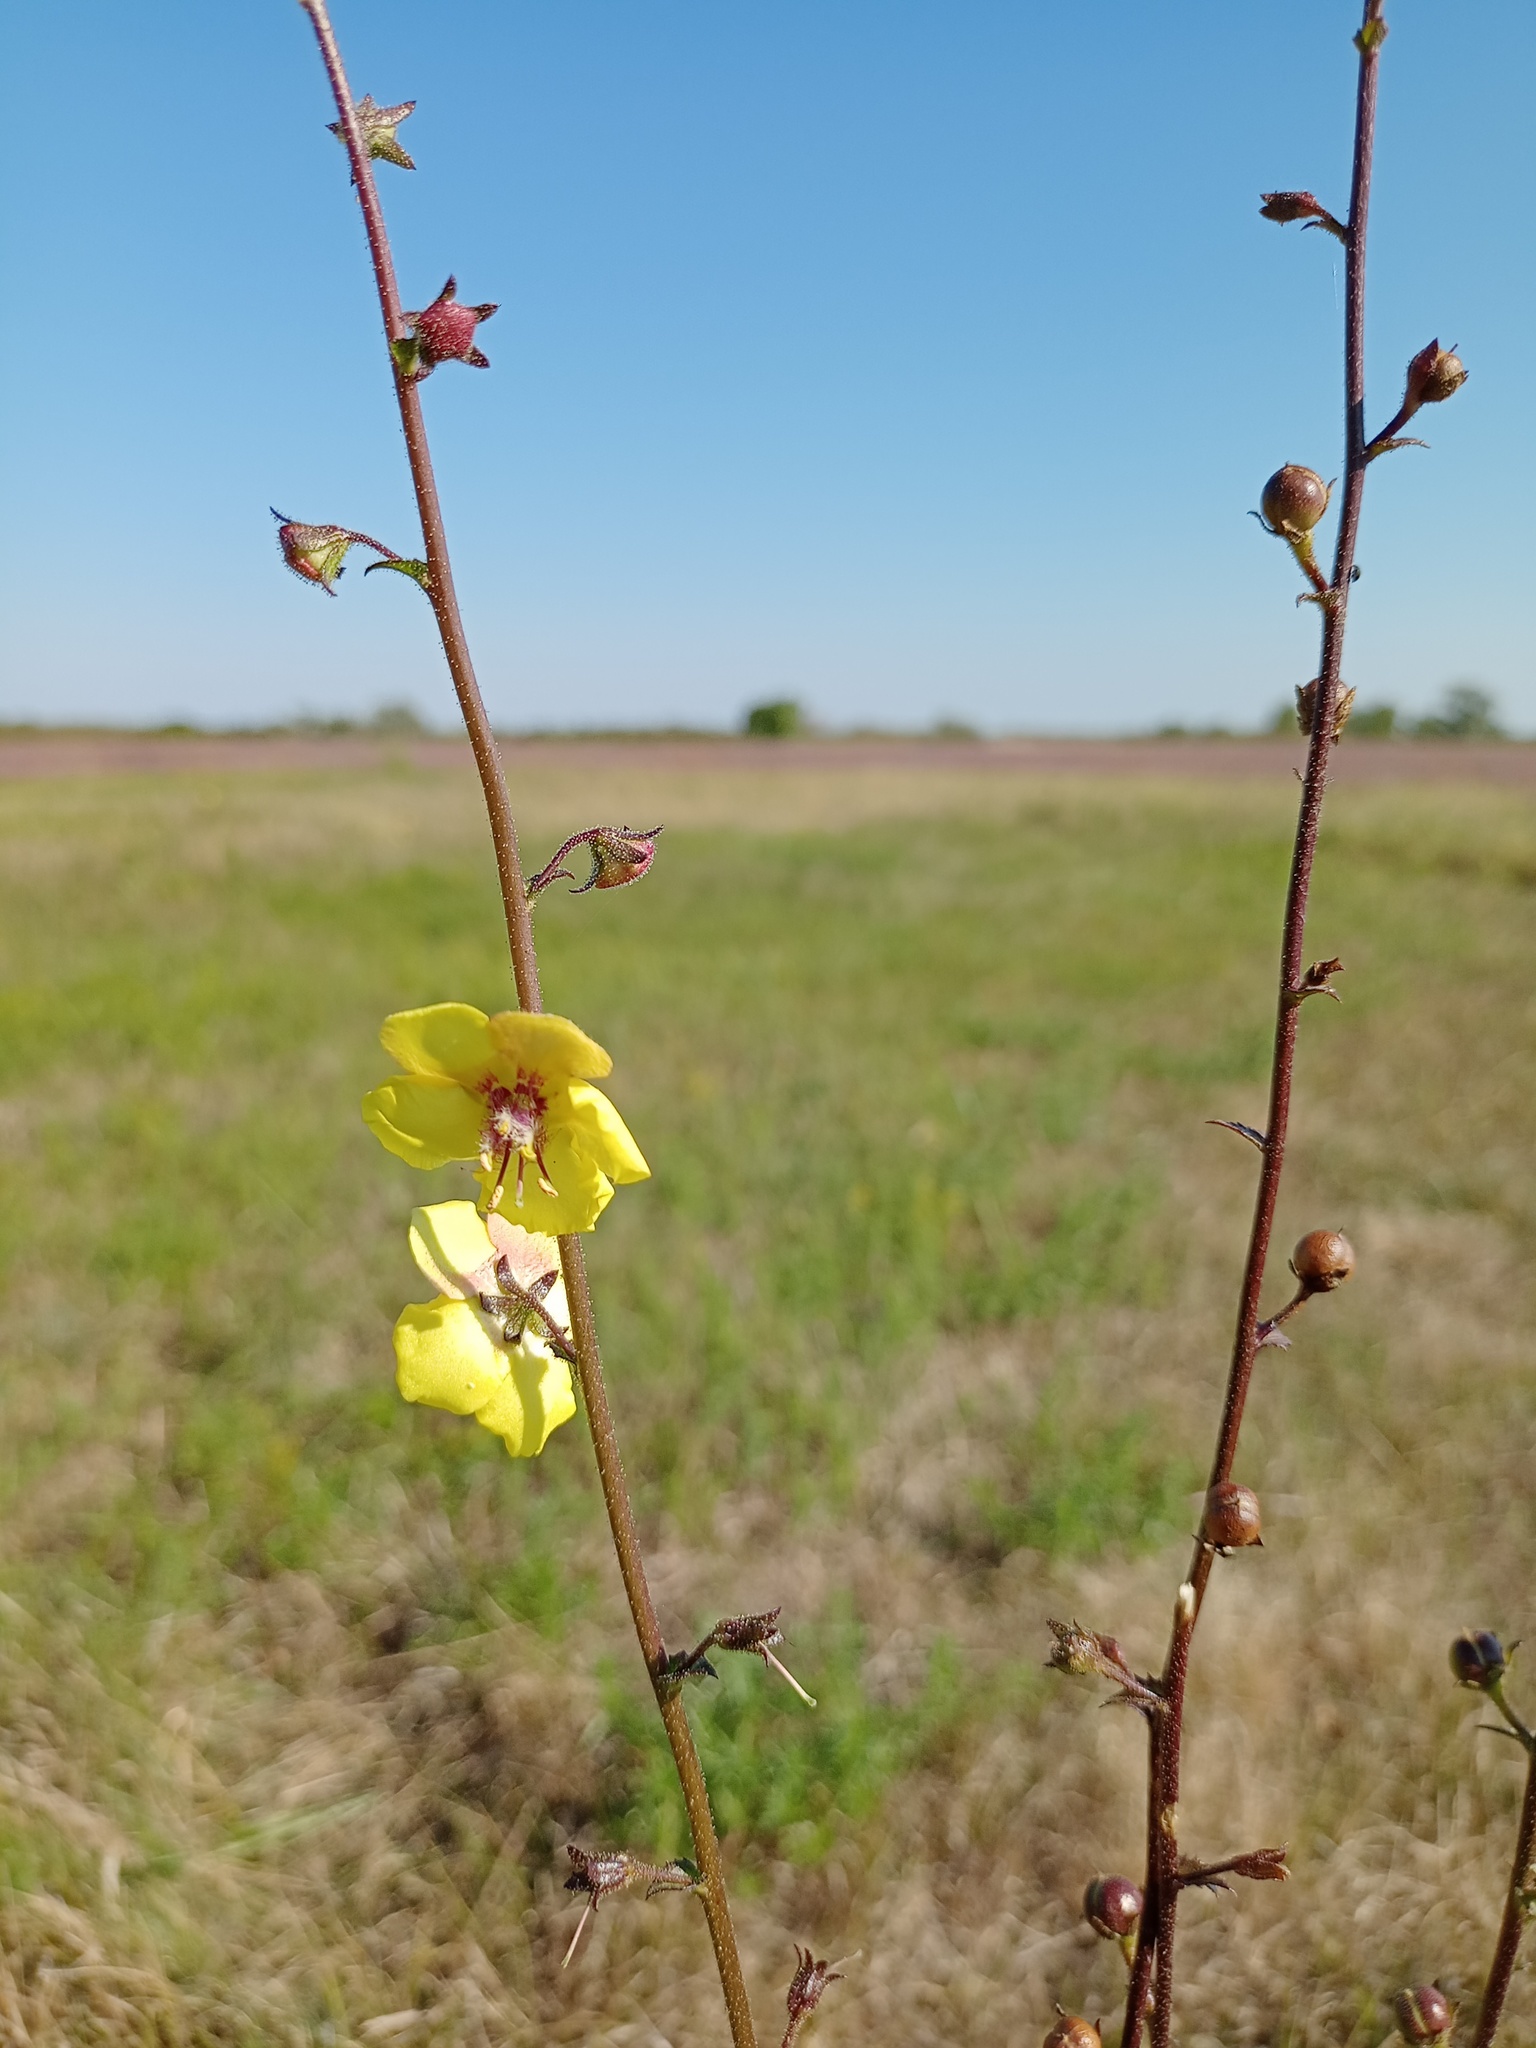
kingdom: Plantae
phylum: Tracheophyta
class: Magnoliopsida
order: Lamiales
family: Scrophulariaceae
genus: Verbascum
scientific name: Verbascum blattaria
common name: Moth mullein
